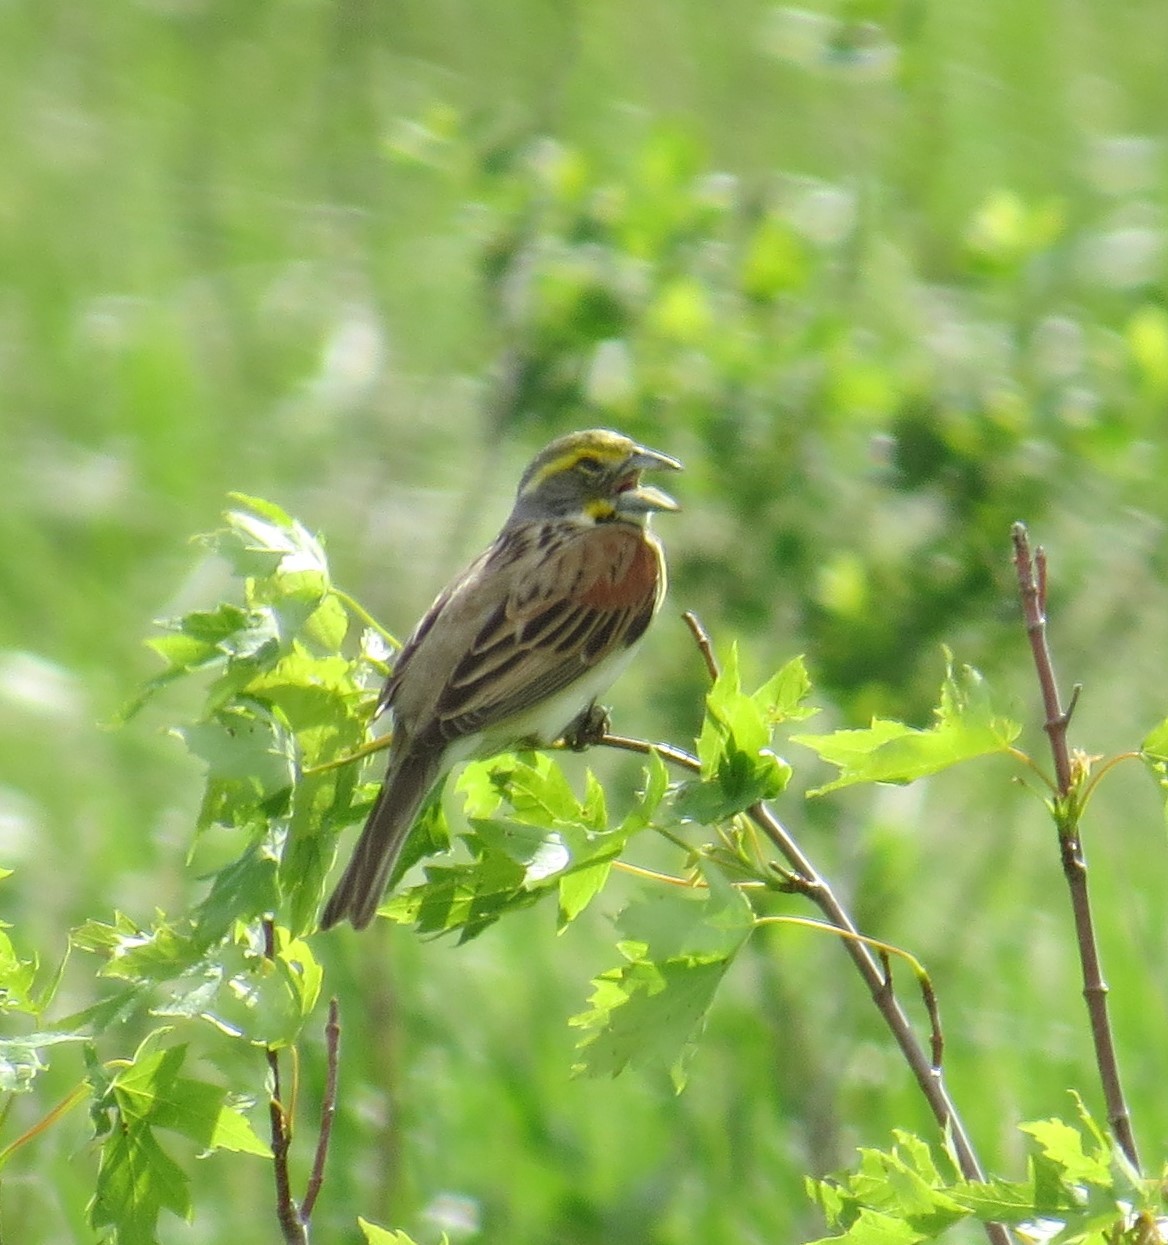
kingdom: Animalia
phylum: Chordata
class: Aves
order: Passeriformes
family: Cardinalidae
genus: Spiza
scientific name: Spiza americana
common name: Dickcissel
